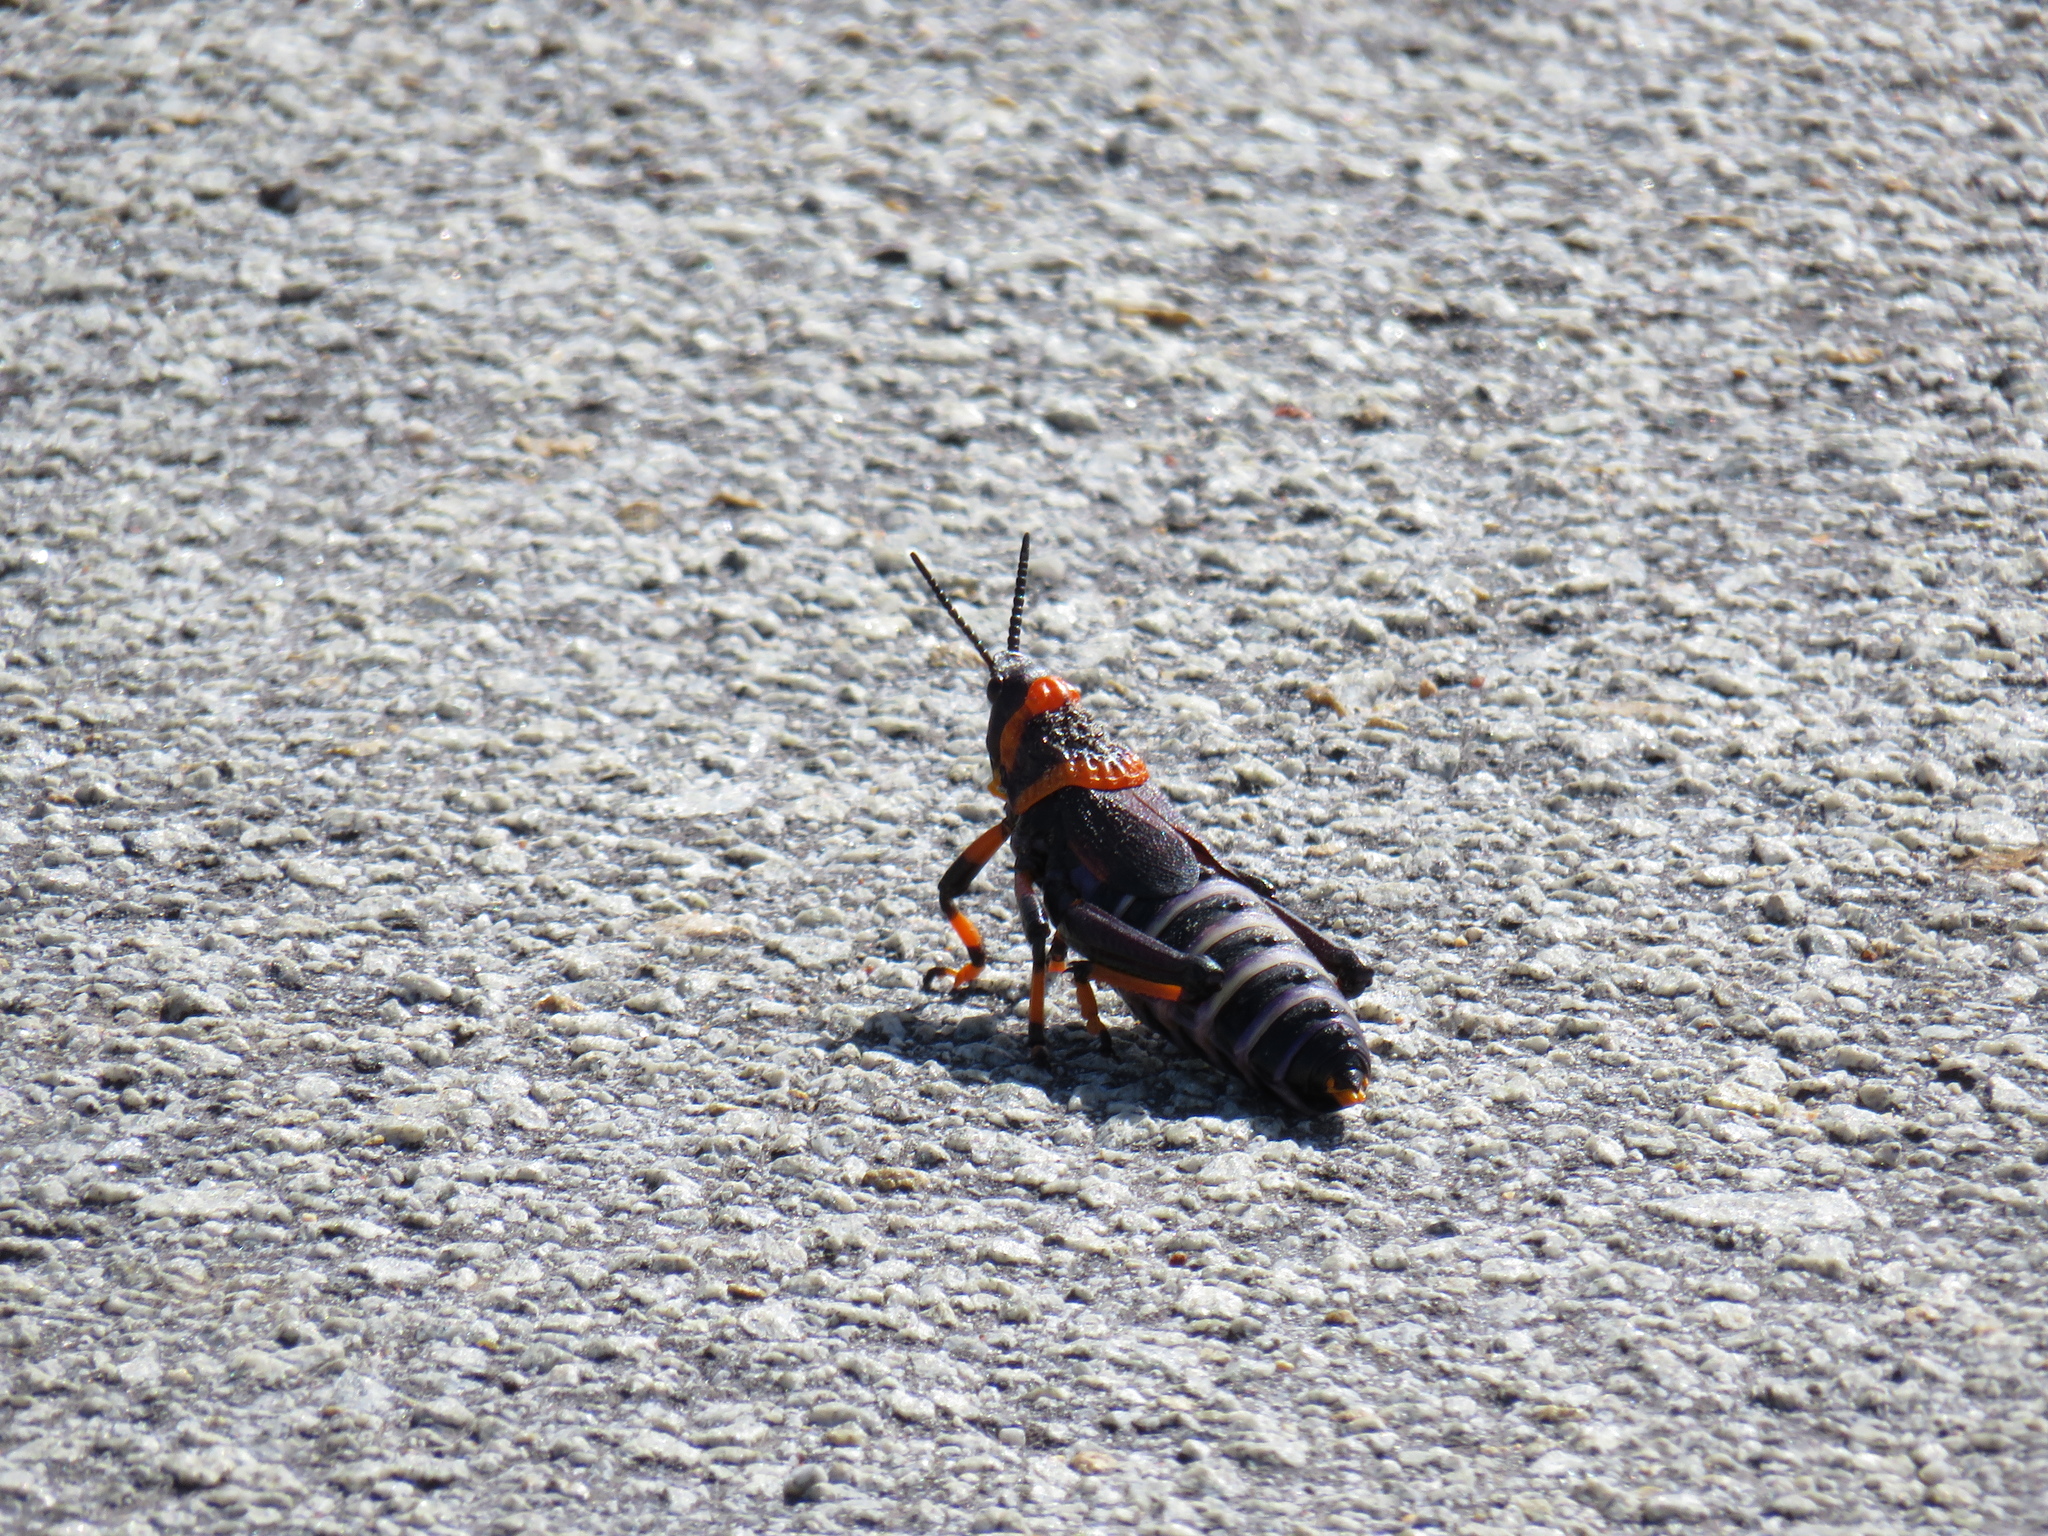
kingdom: Animalia
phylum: Arthropoda
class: Insecta
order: Orthoptera
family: Pyrgomorphidae
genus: Dictyophorus
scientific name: Dictyophorus spumans
